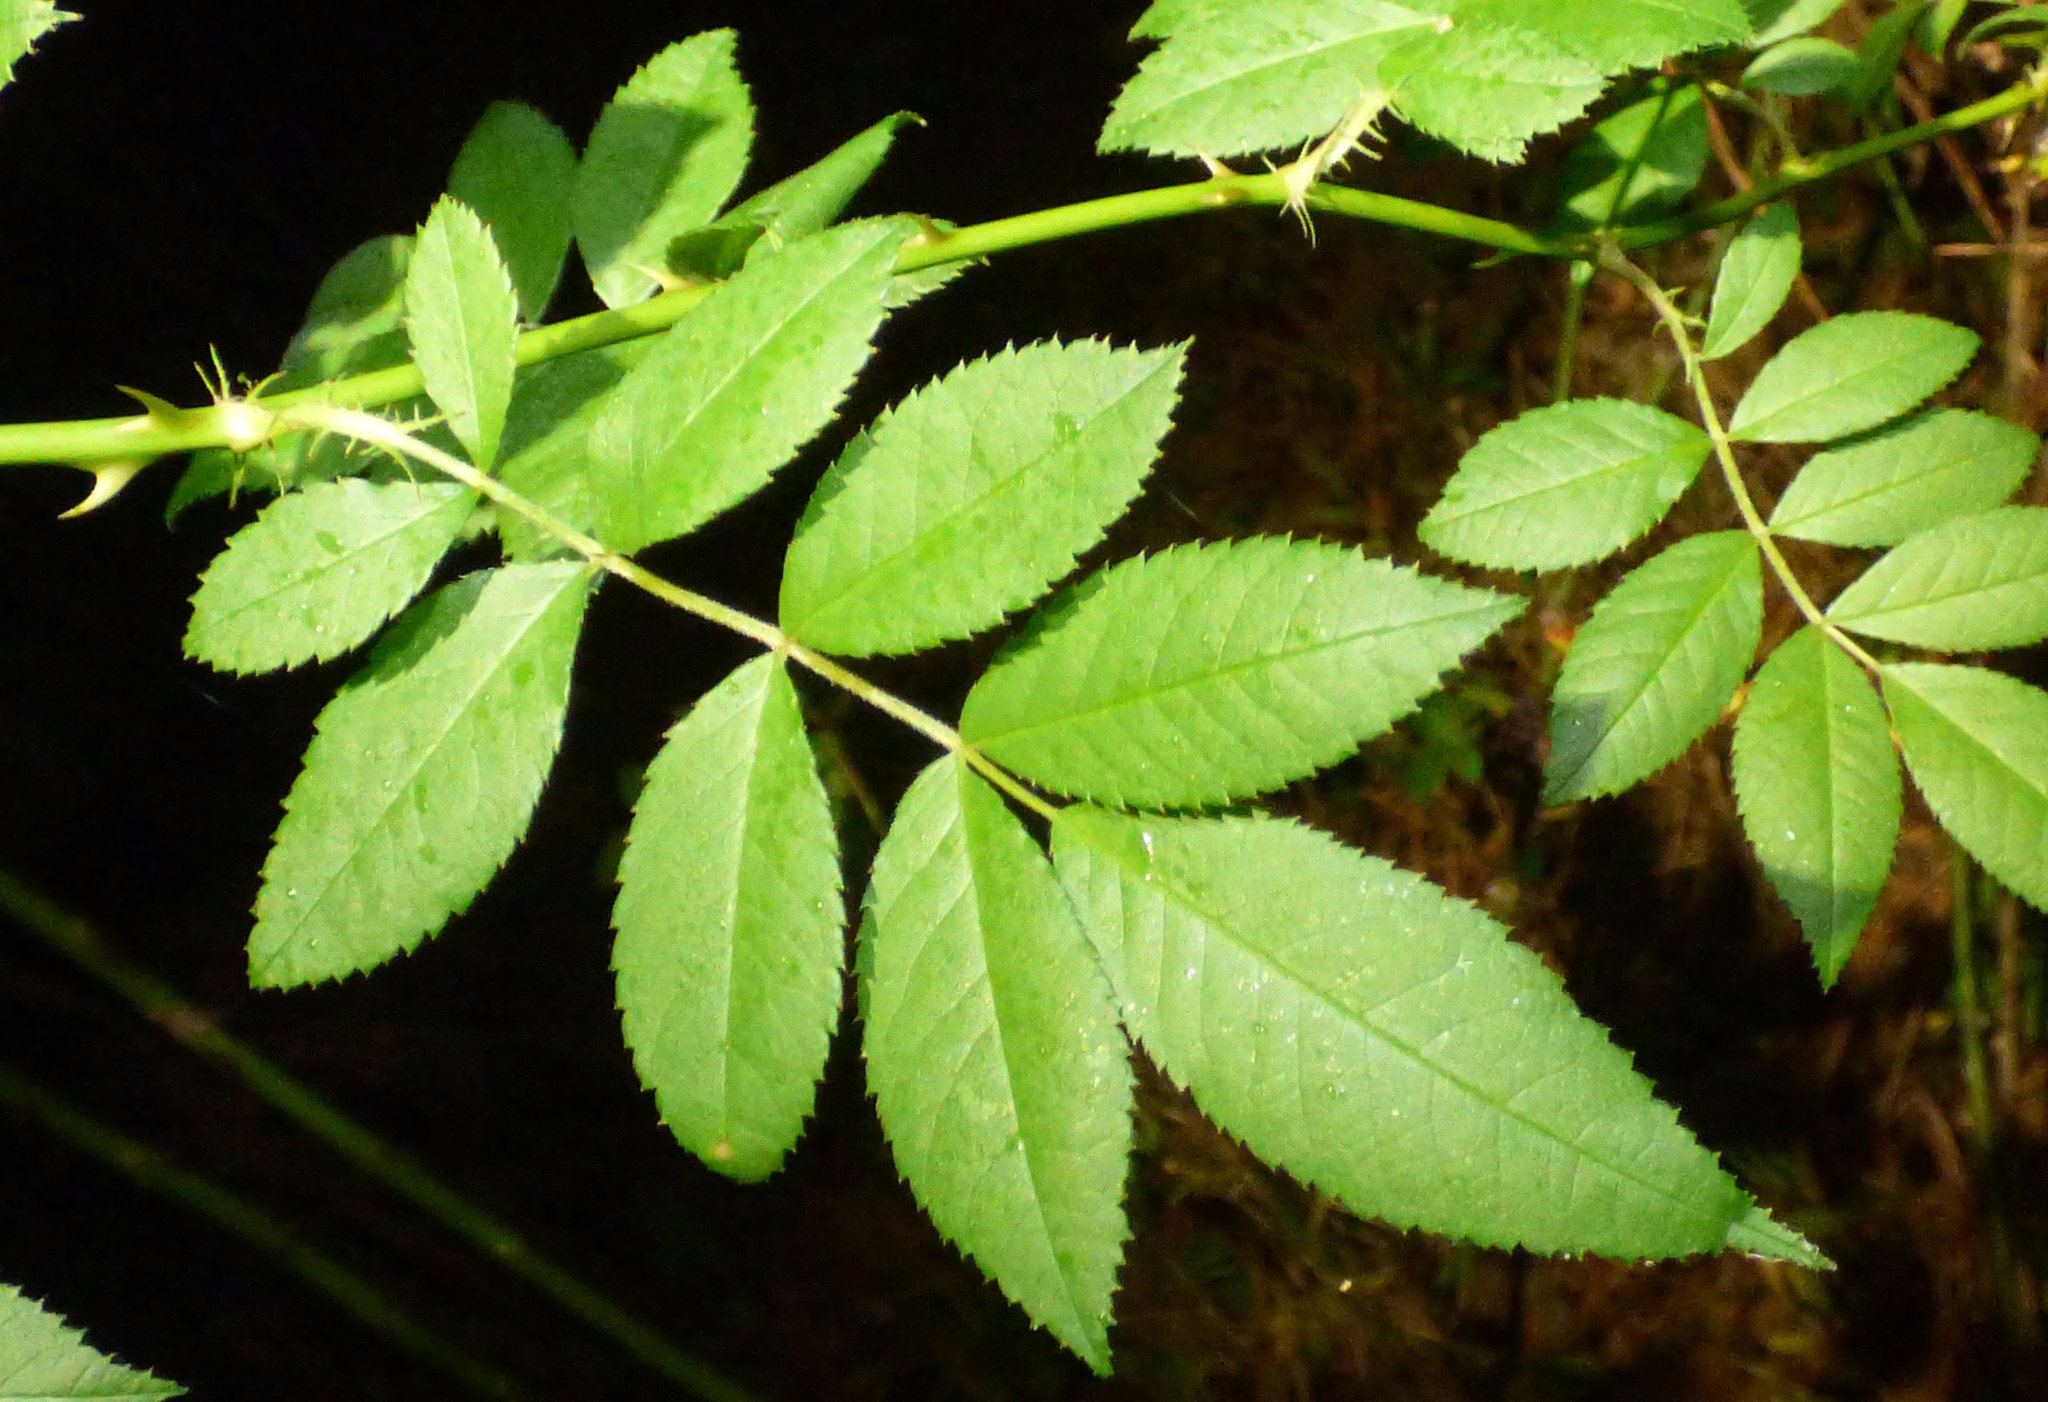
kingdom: Plantae
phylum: Tracheophyta
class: Magnoliopsida
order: Rosales
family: Rosaceae
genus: Rosa
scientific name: Rosa multiflora
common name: Multiflora rose
